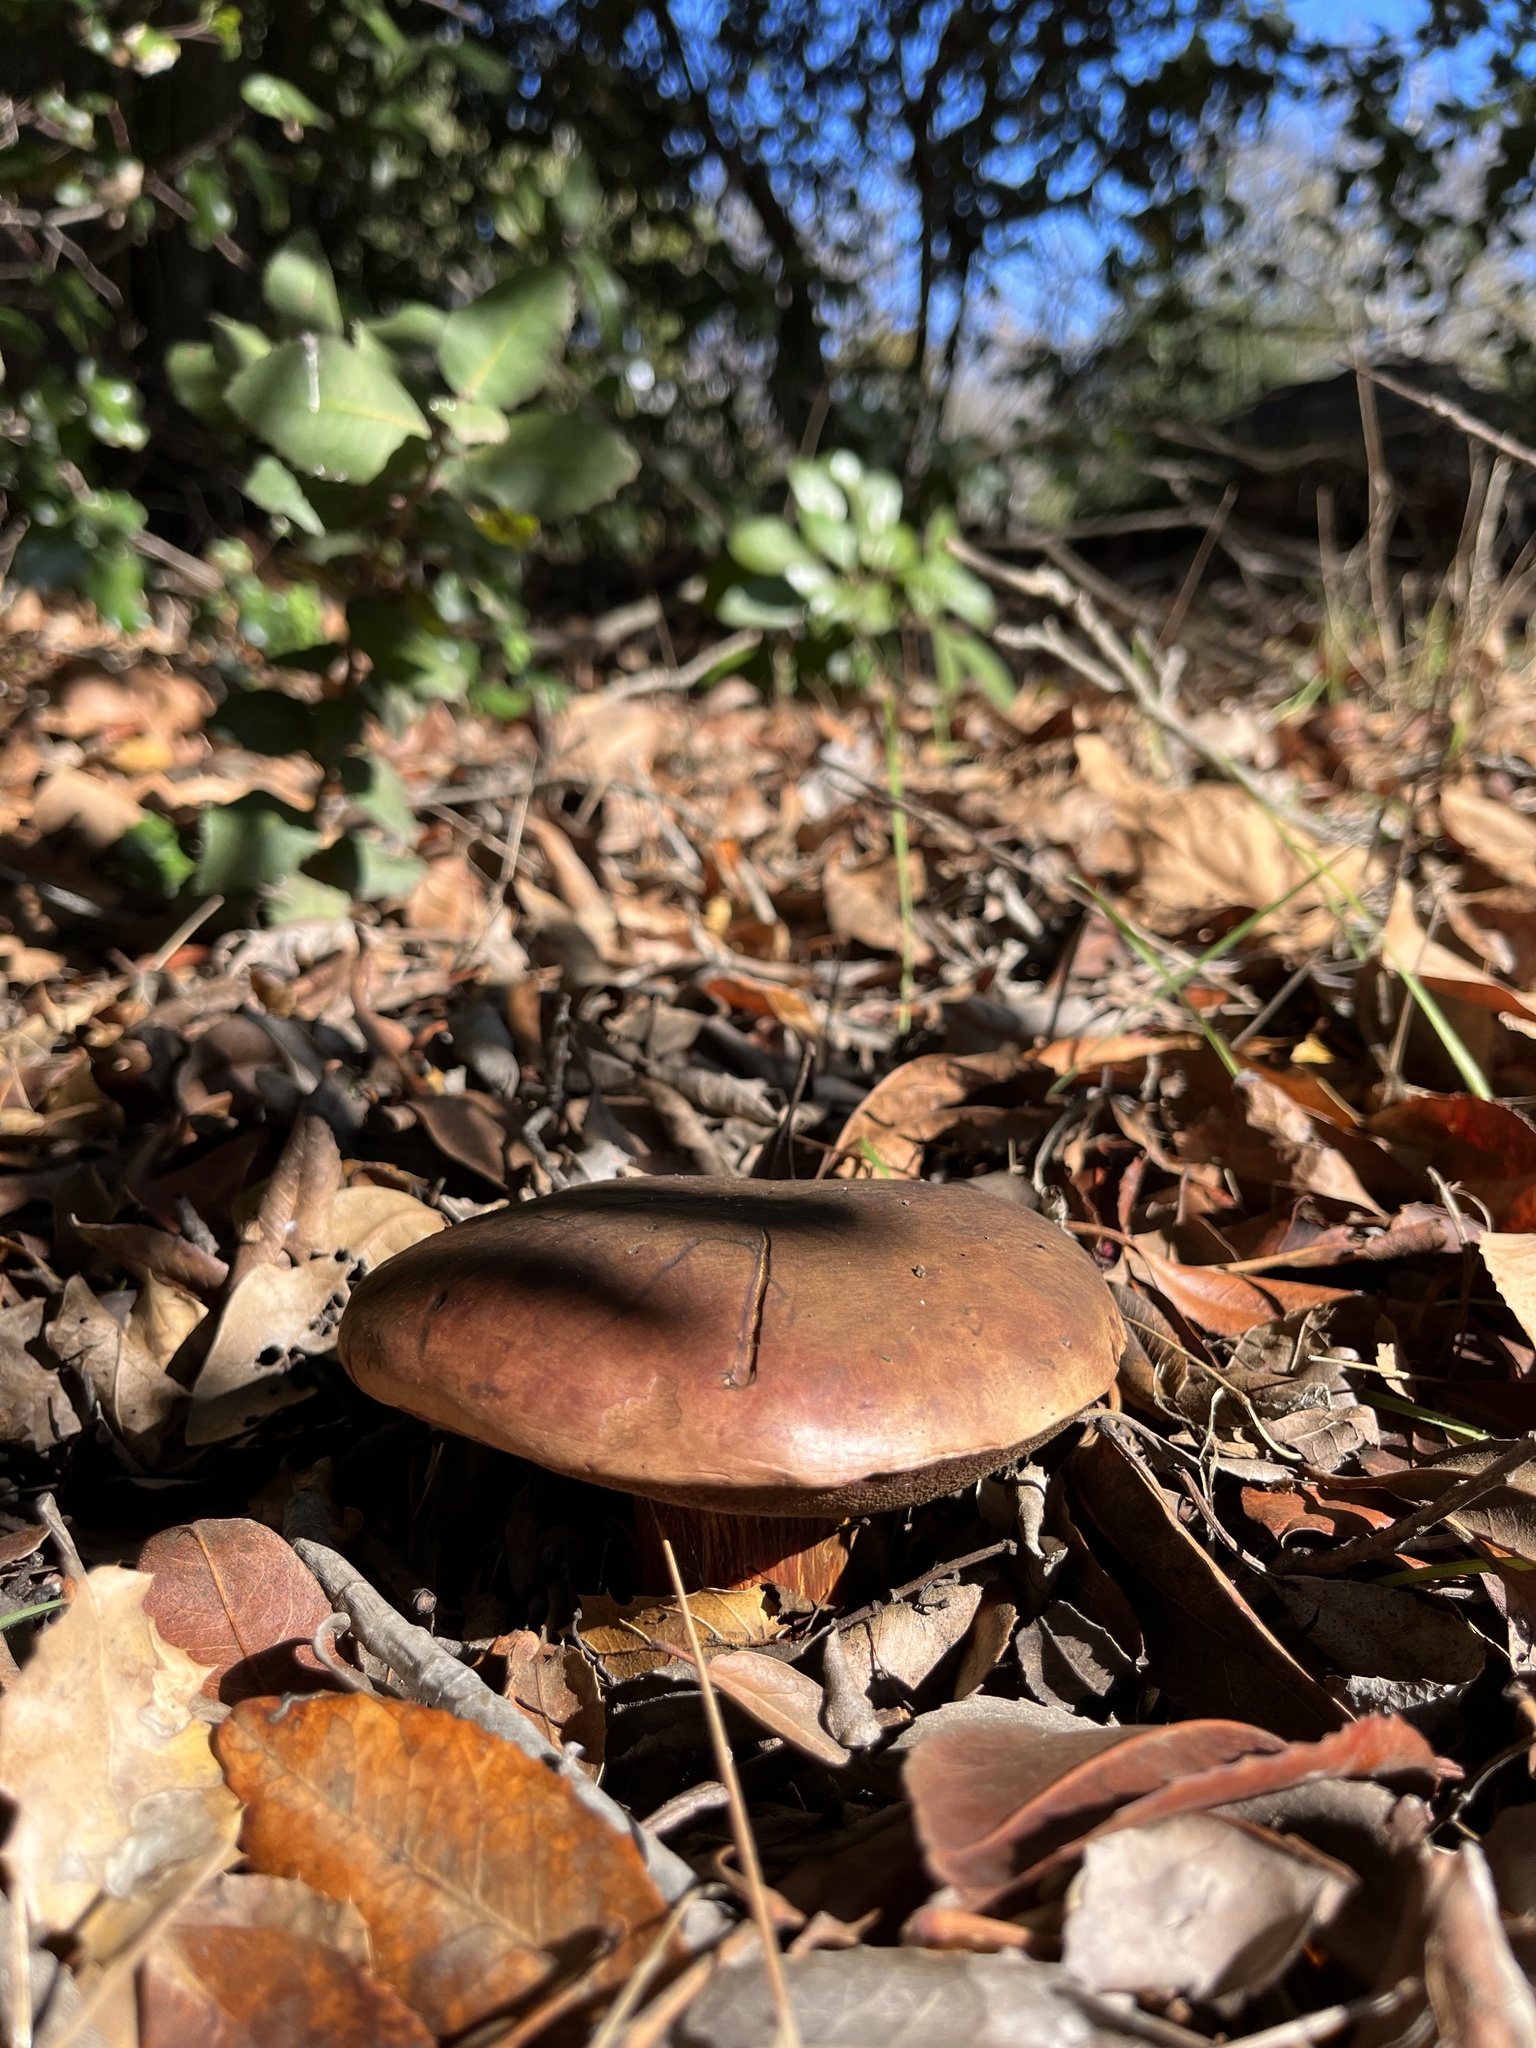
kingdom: Fungi
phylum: Basidiomycota
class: Agaricomycetes
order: Boletales
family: Boletaceae
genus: Suillellus
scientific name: Suillellus amygdalinus
